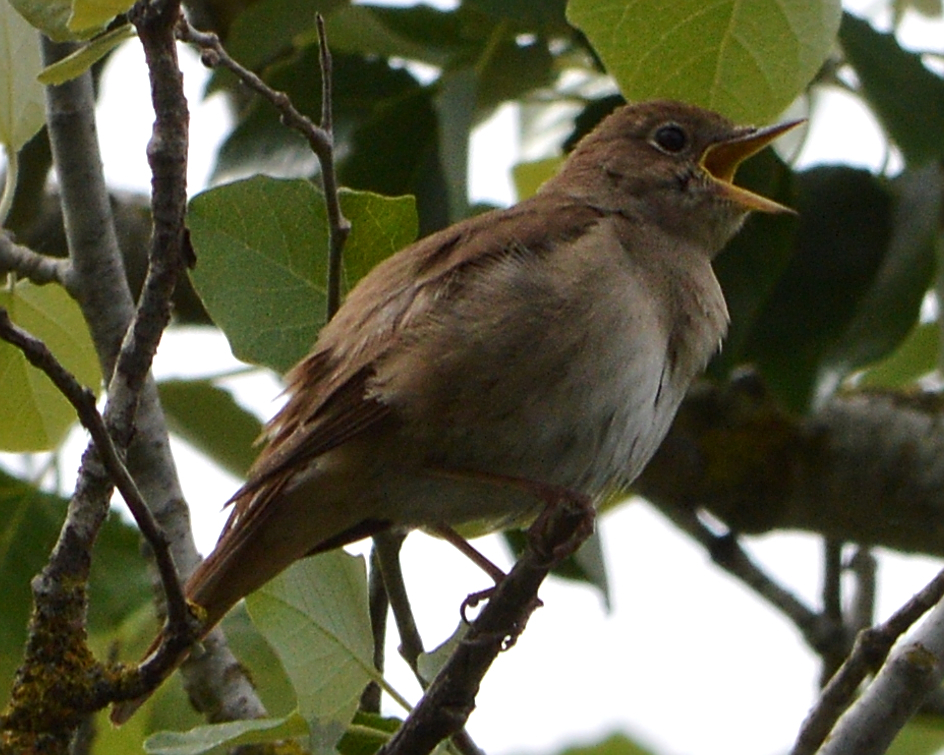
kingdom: Animalia
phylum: Chordata
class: Aves
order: Passeriformes
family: Muscicapidae
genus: Luscinia
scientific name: Luscinia megarhynchos
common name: Common nightingale
